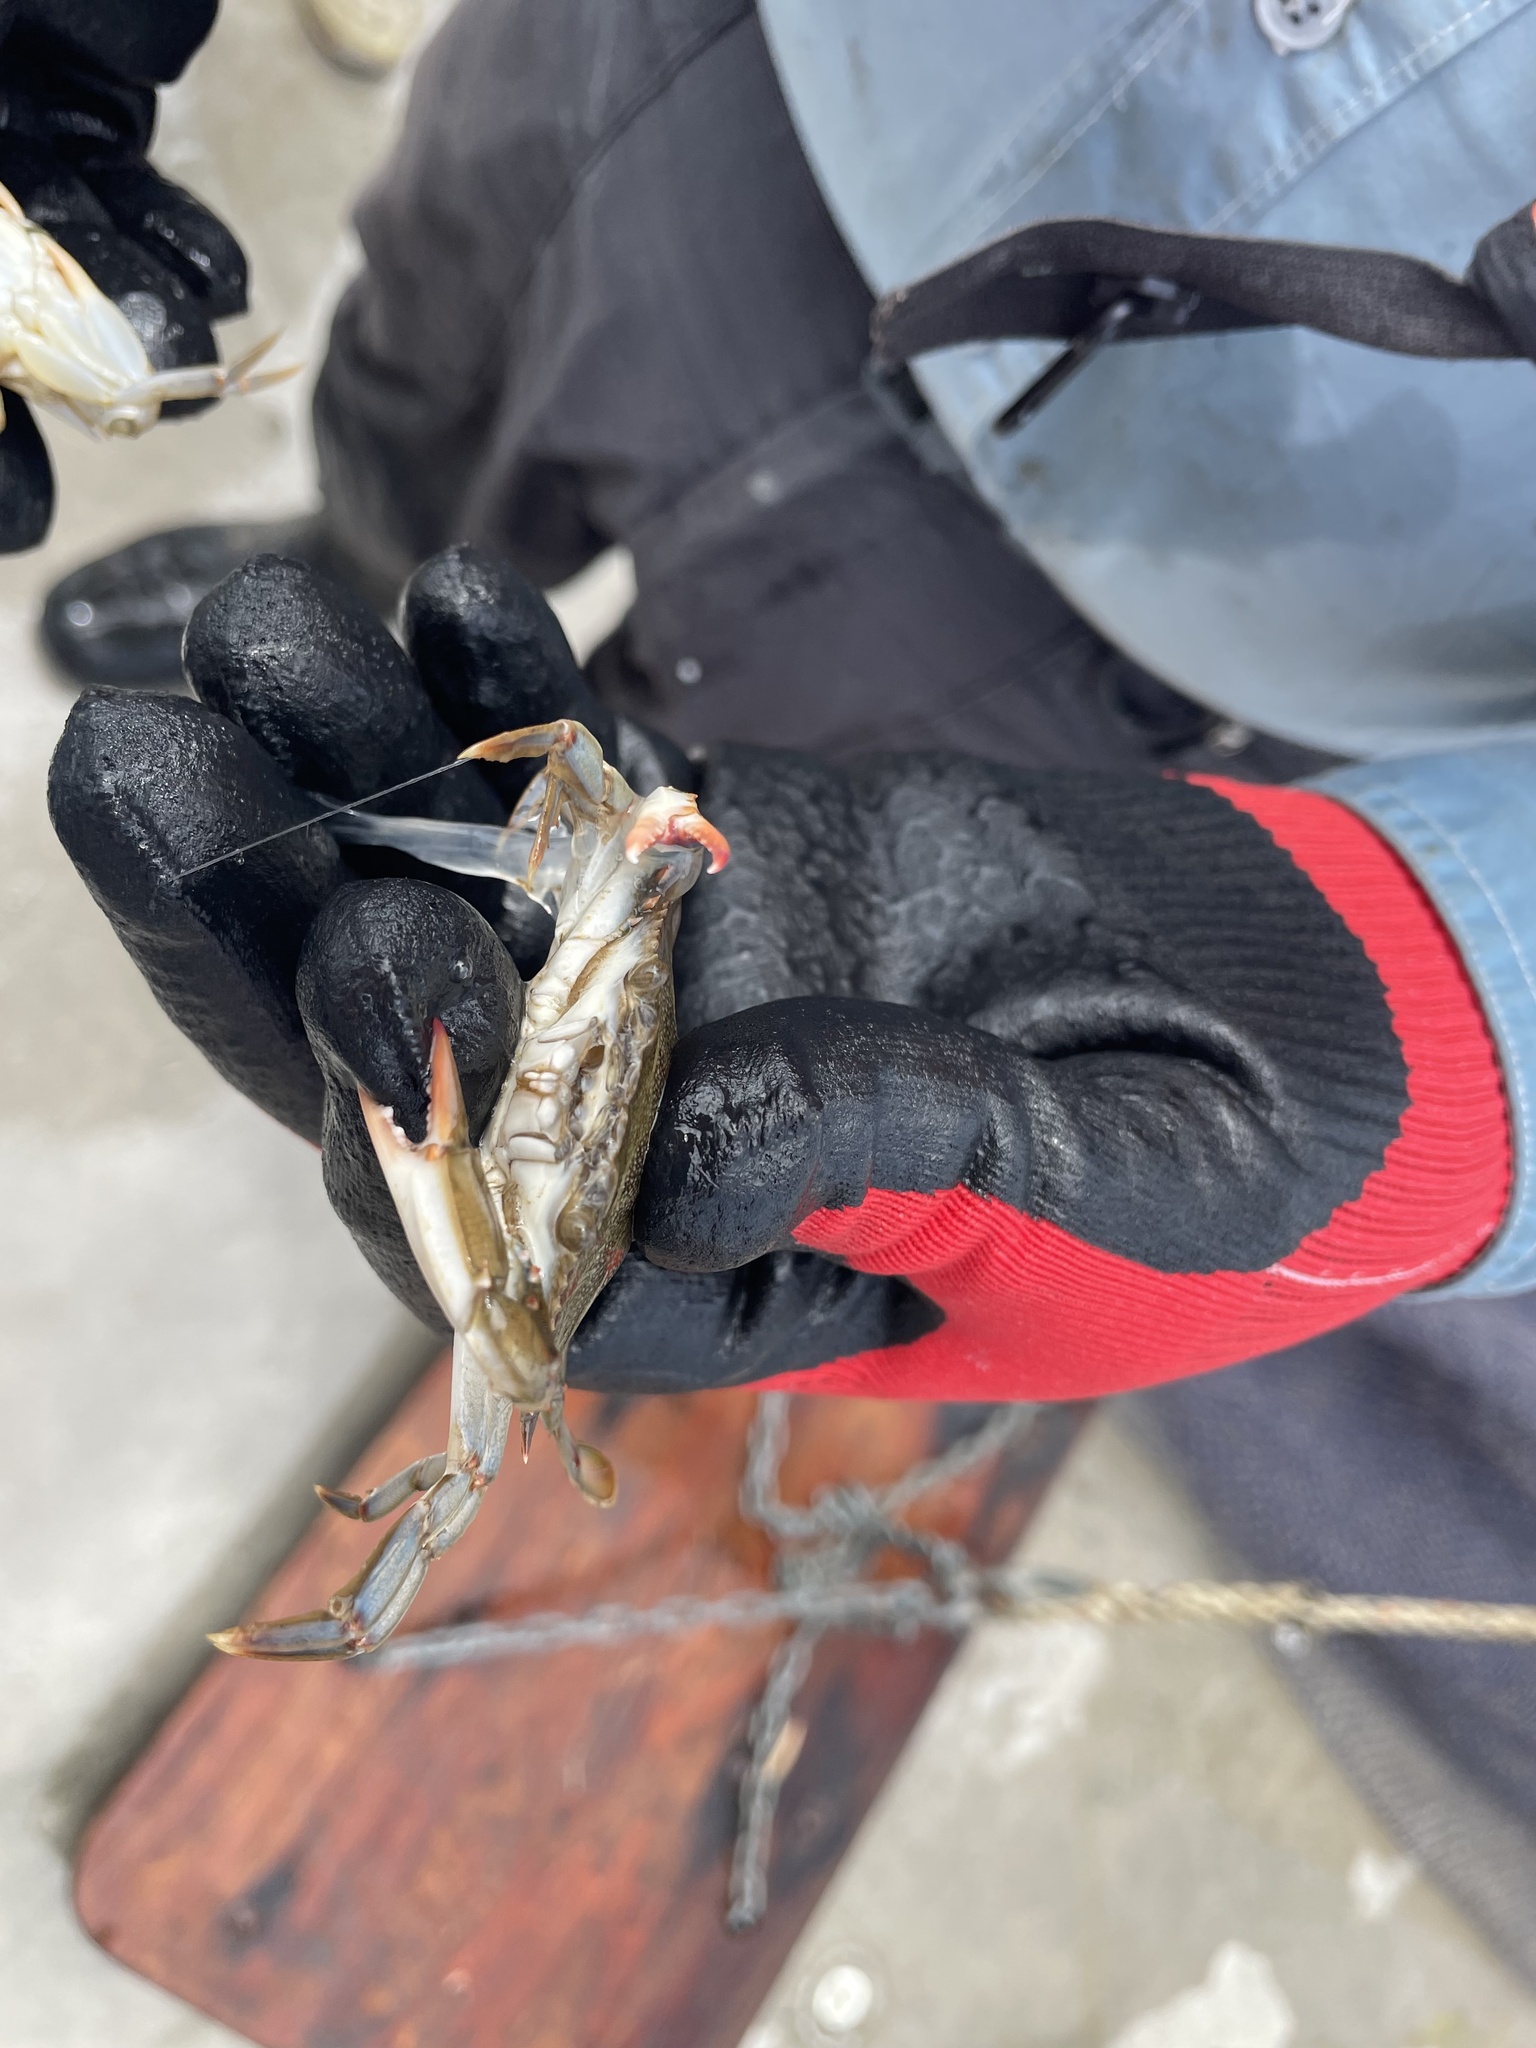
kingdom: Animalia
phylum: Arthropoda
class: Malacostraca
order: Decapoda
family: Portunidae
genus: Callinectes
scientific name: Callinectes sapidus
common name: Blue crab
